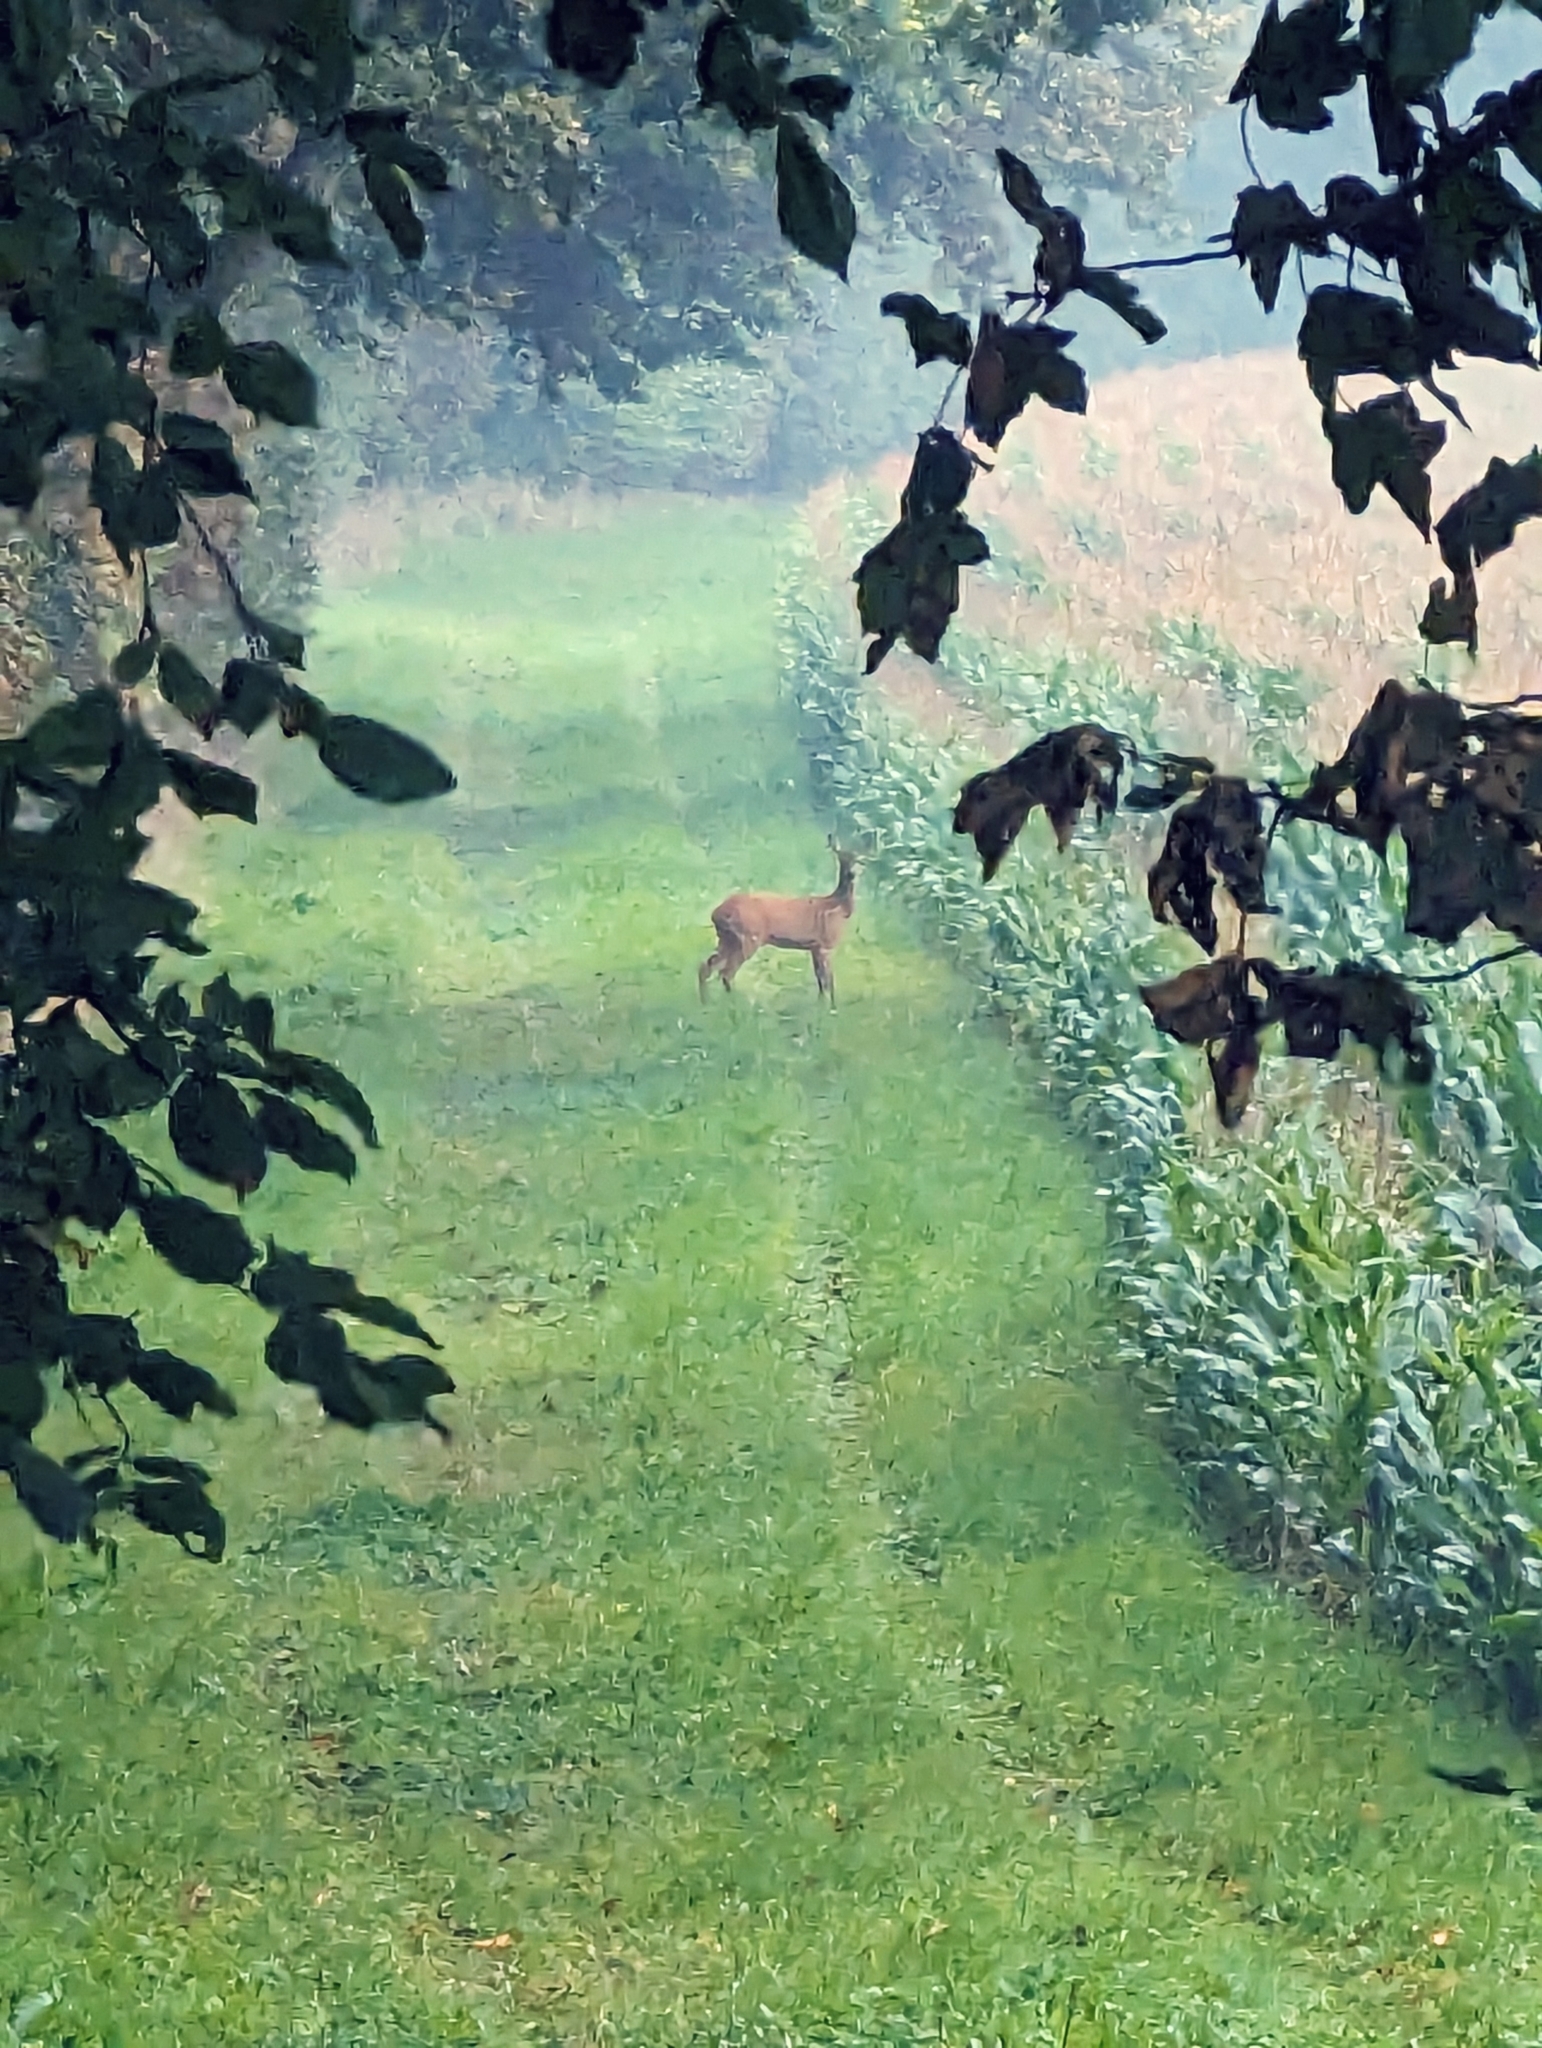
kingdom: Animalia
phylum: Chordata
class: Mammalia
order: Artiodactyla
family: Cervidae
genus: Capreolus
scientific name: Capreolus capreolus
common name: Western roe deer
